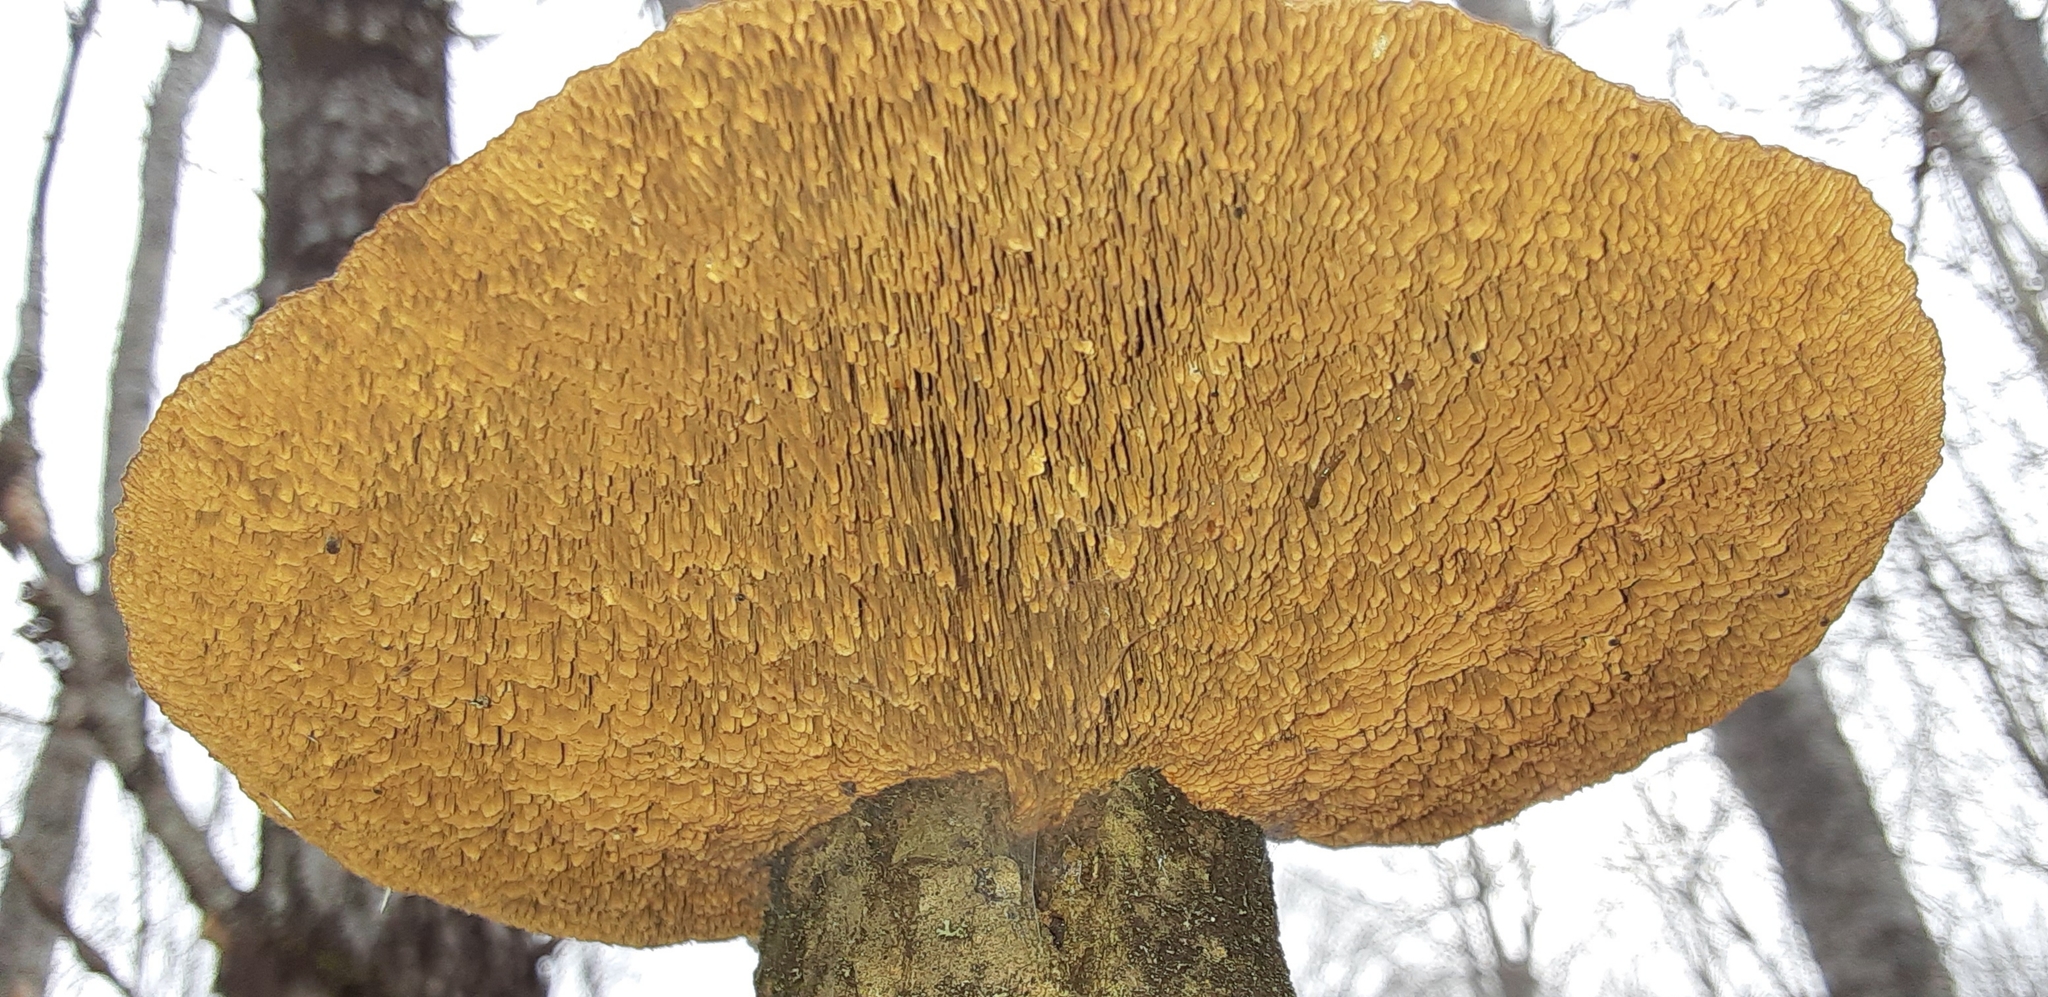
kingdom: Fungi
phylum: Basidiomycota
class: Agaricomycetes
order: Polyporales
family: Polyporaceae
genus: Daedaleopsis
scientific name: Daedaleopsis confragosa
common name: Blushing bracket
